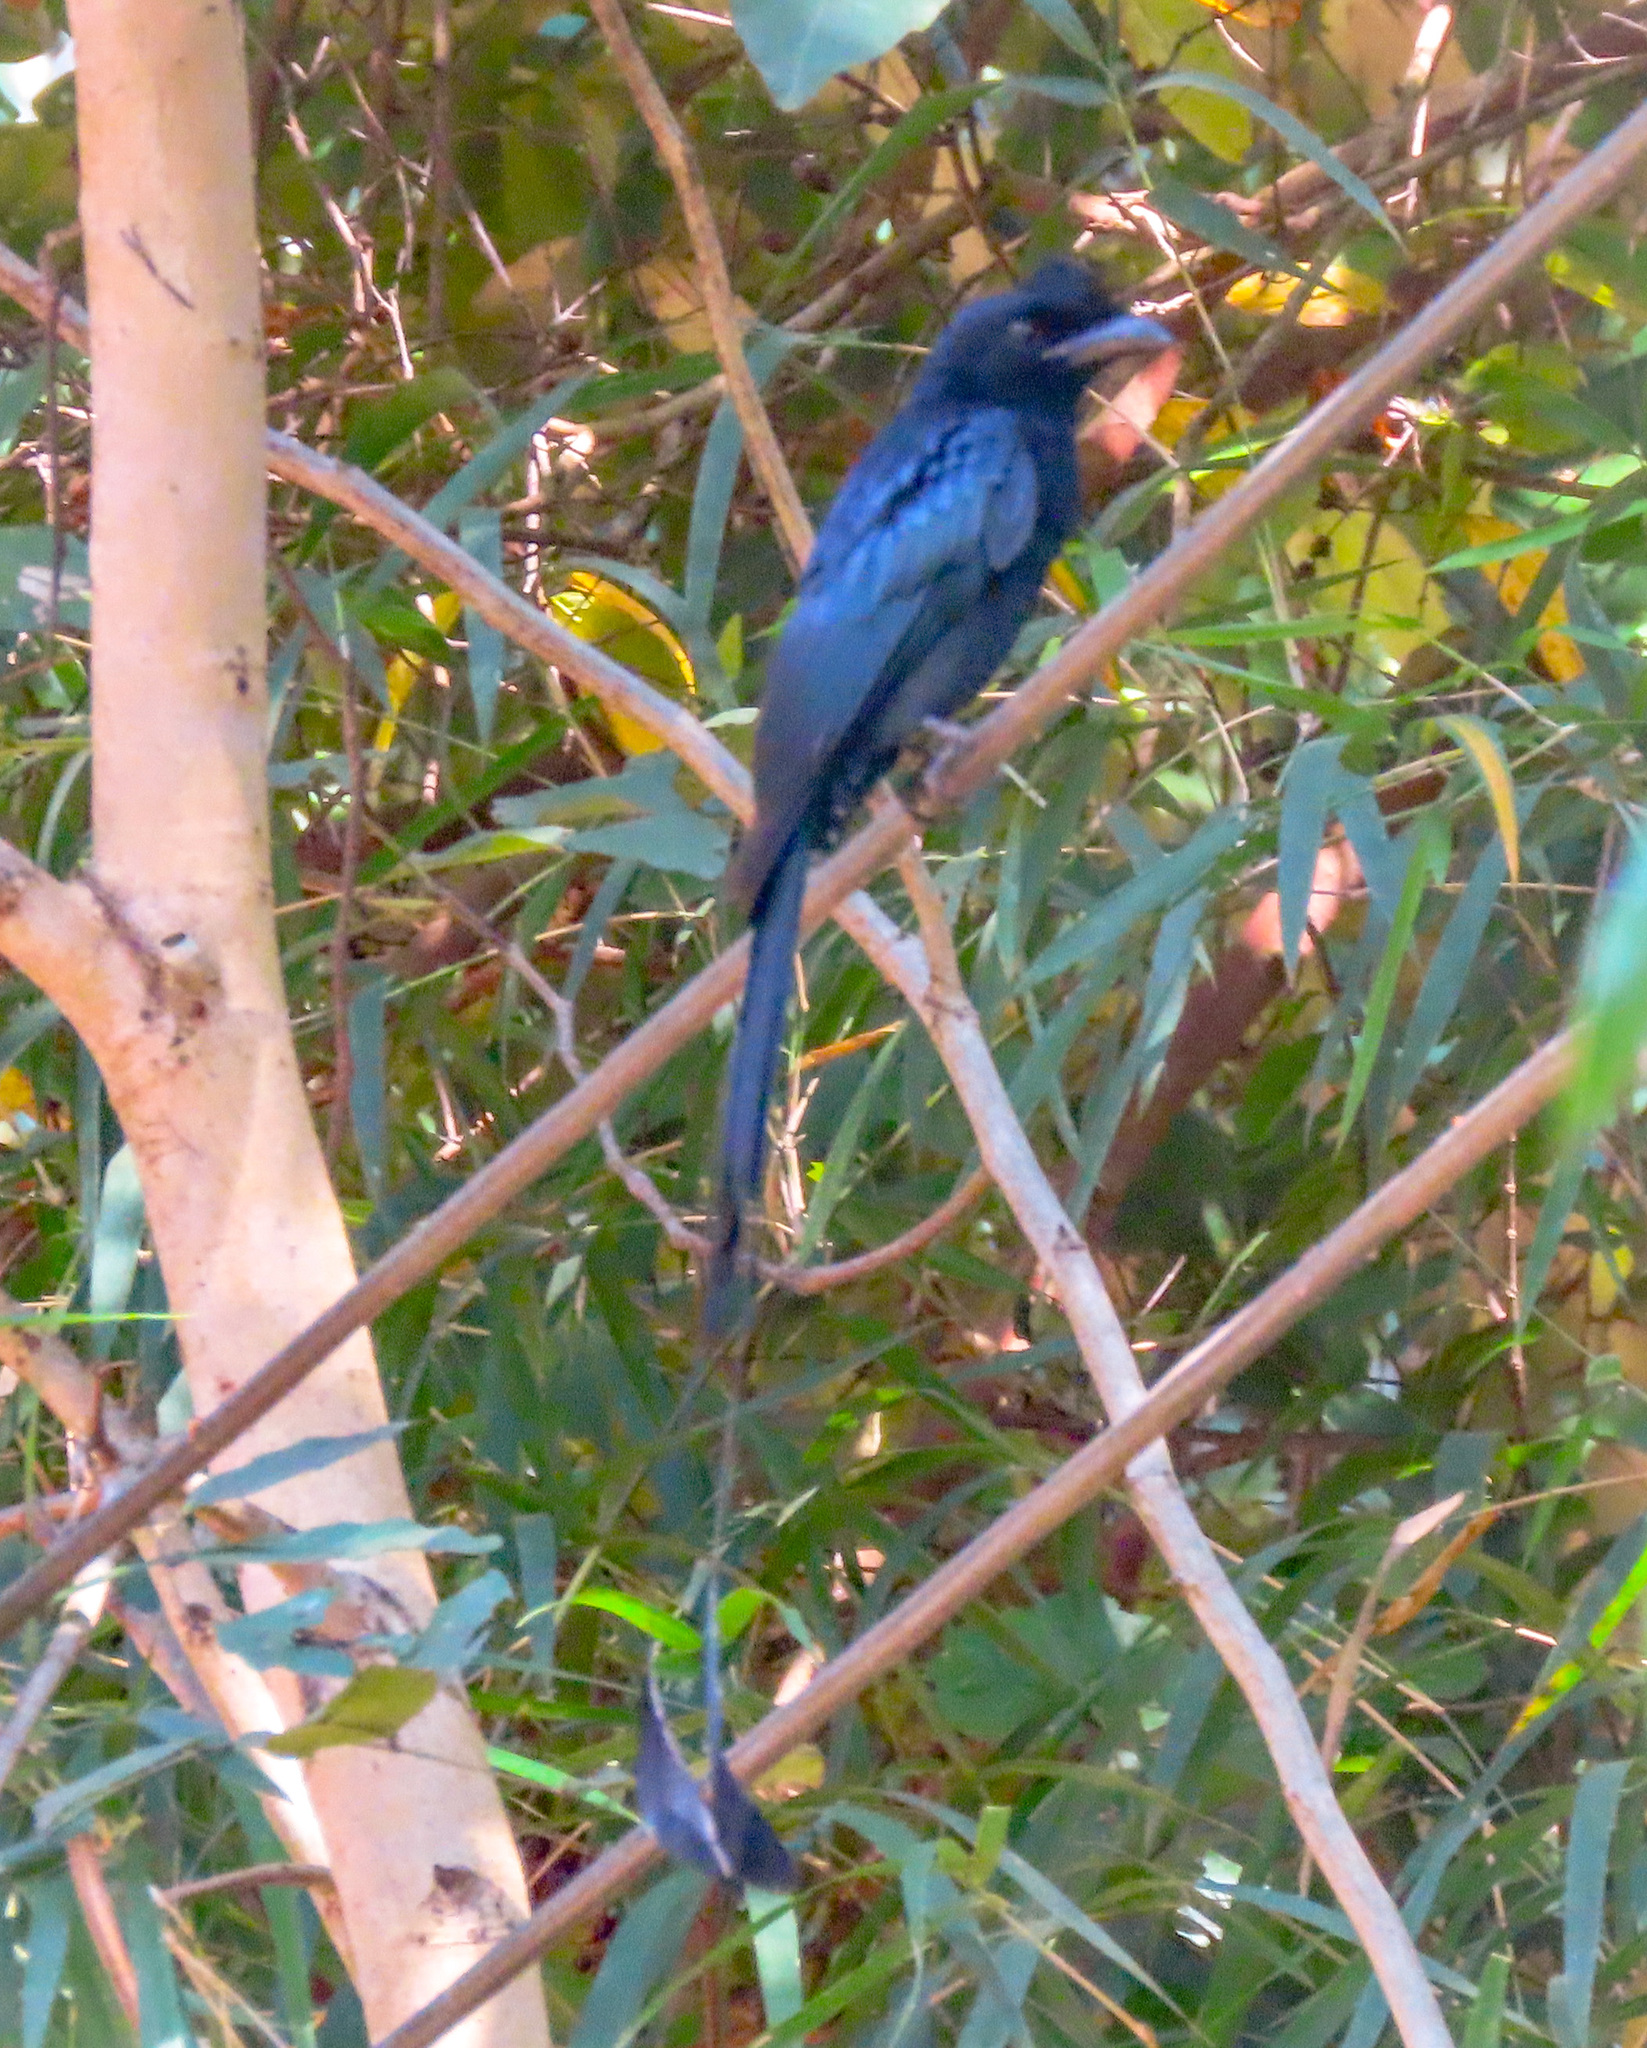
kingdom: Animalia
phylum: Chordata
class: Aves
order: Passeriformes
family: Dicruridae
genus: Dicrurus
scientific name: Dicrurus paradiseus
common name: Greater racket-tailed drongo
